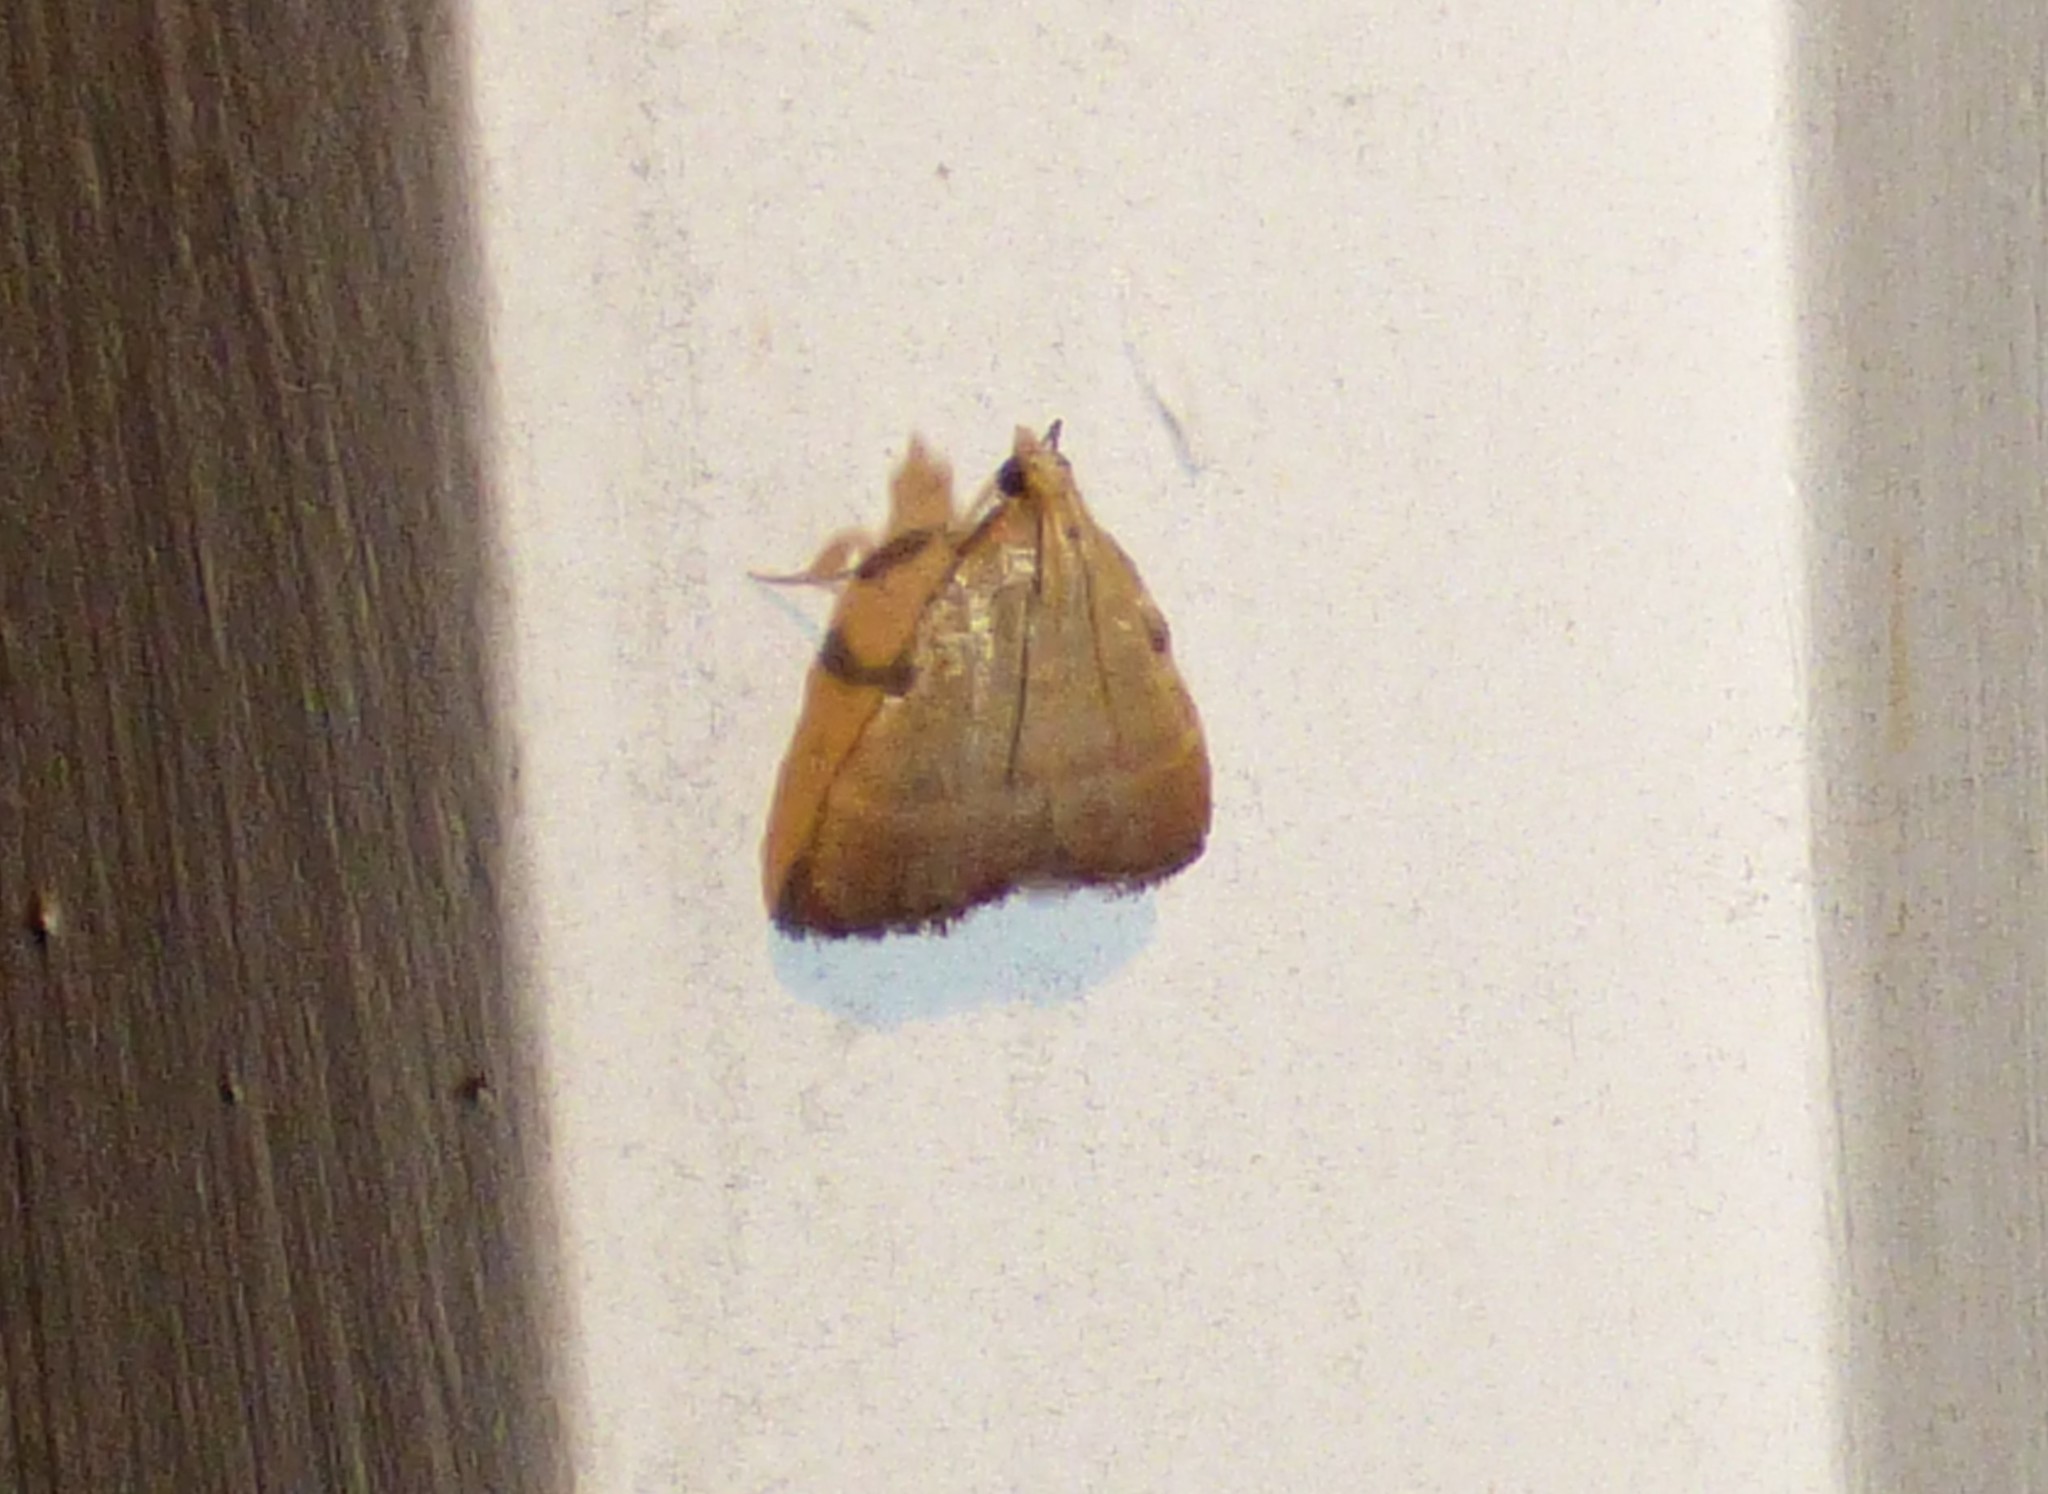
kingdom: Animalia
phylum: Arthropoda
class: Insecta
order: Lepidoptera
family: Pyralidae
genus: Condylolomia
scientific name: Condylolomia participialis
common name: Drab condylolomia moth
